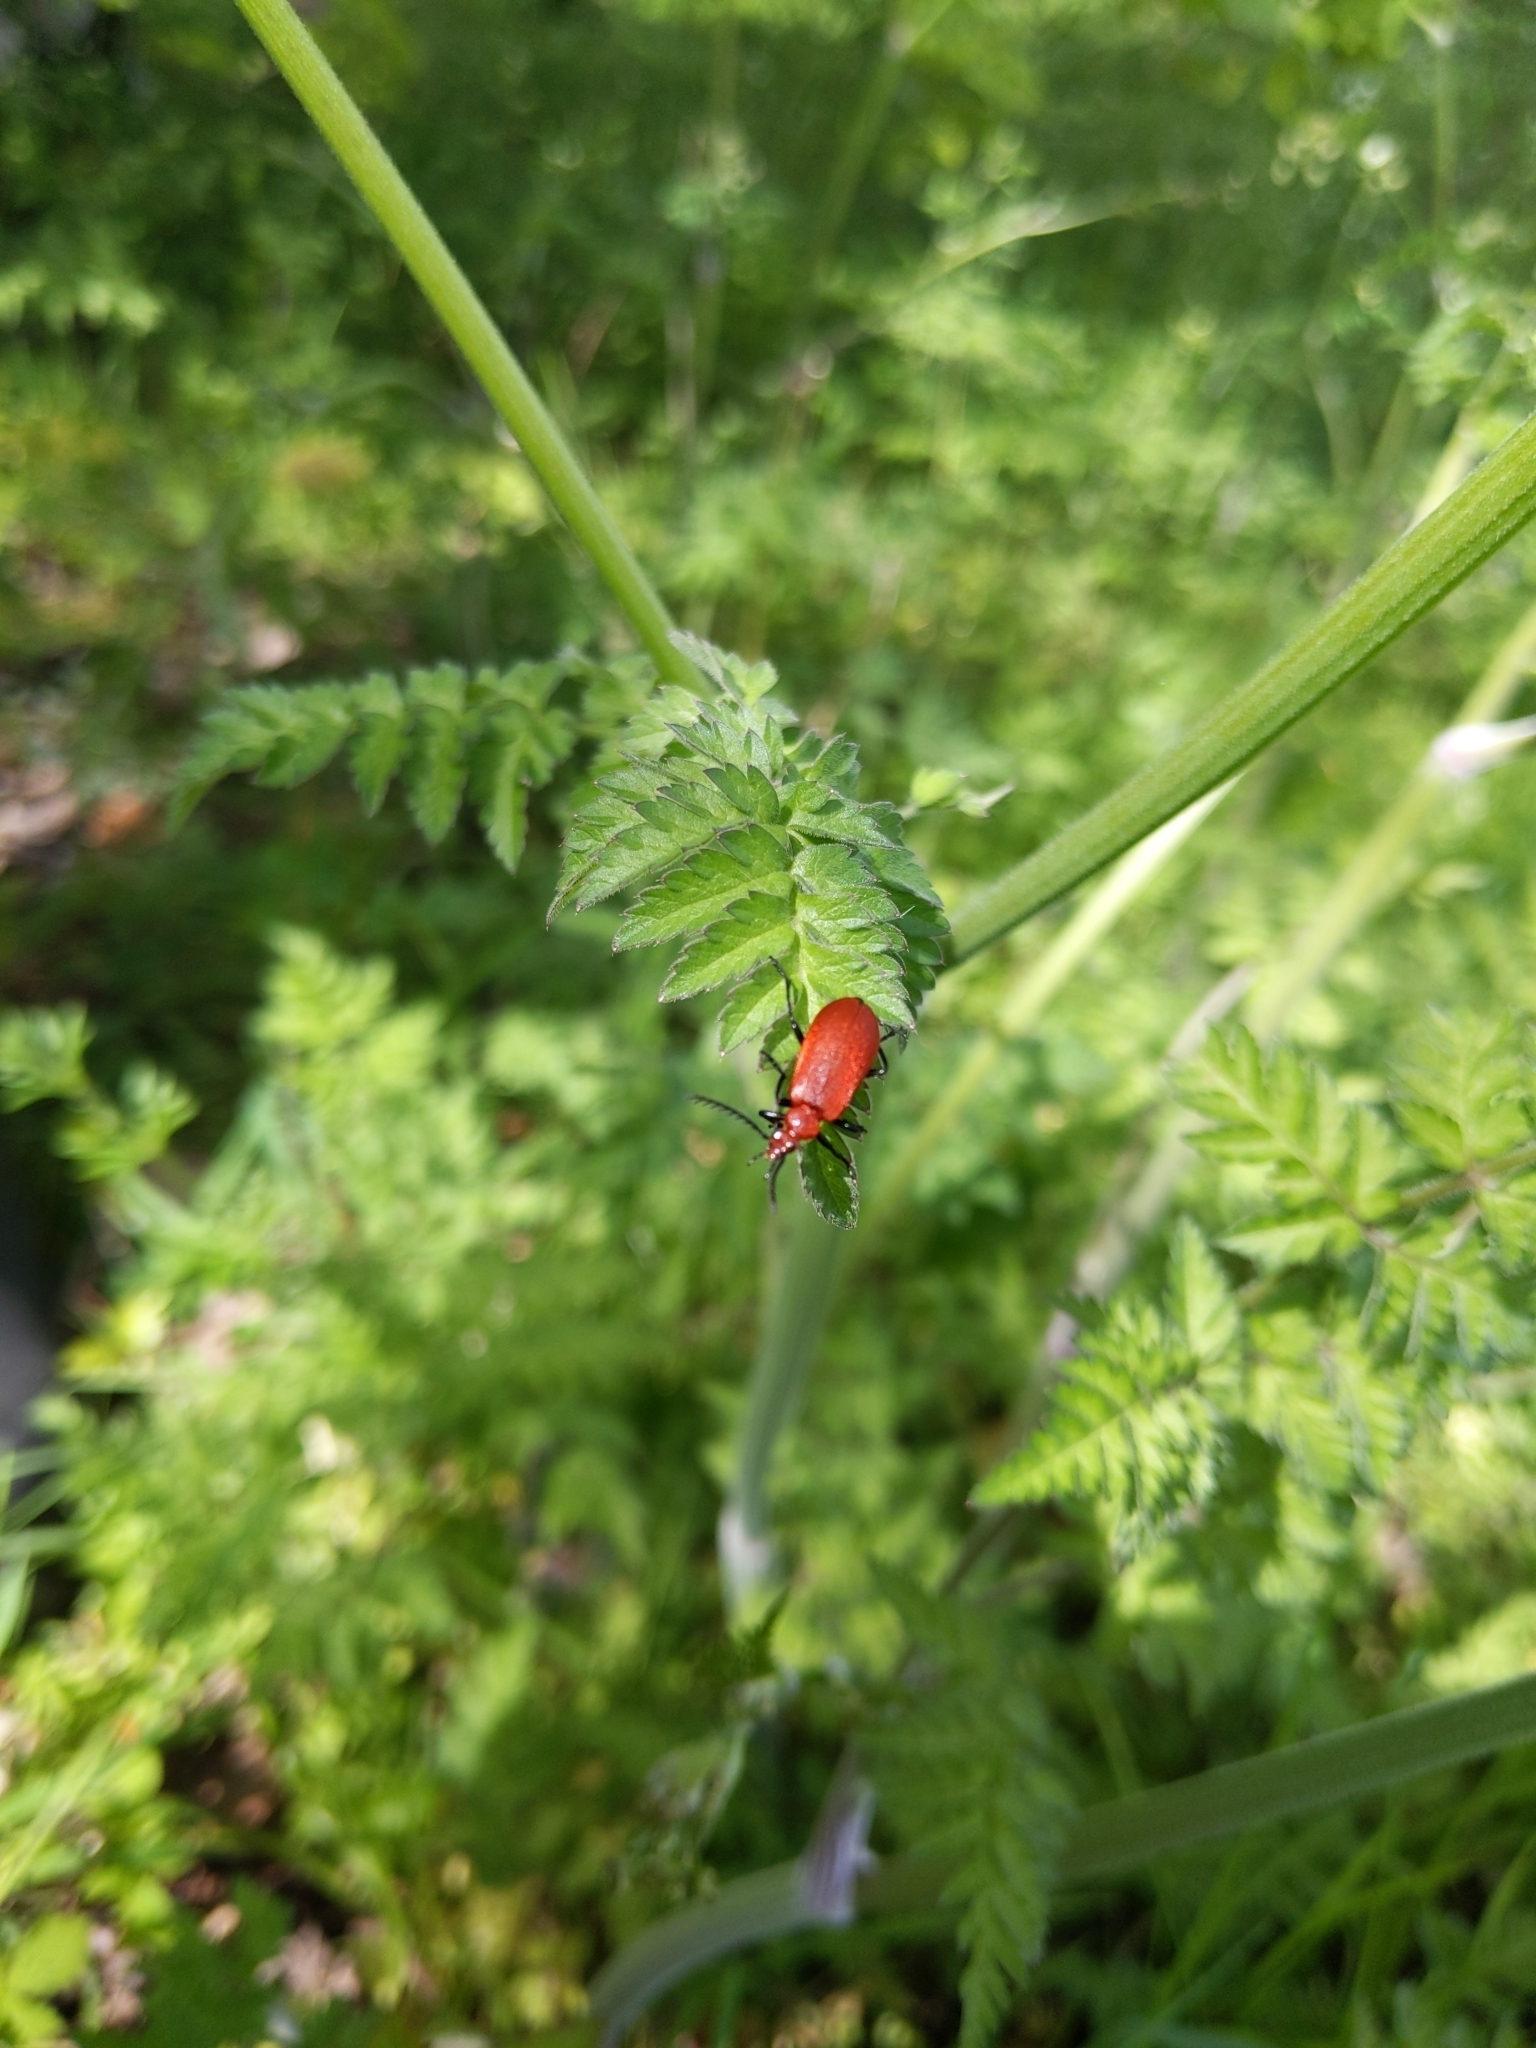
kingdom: Animalia
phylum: Arthropoda
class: Insecta
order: Coleoptera
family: Pyrochroidae
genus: Pyrochroa
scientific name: Pyrochroa serraticornis
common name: Red-headed cardinal beetle
